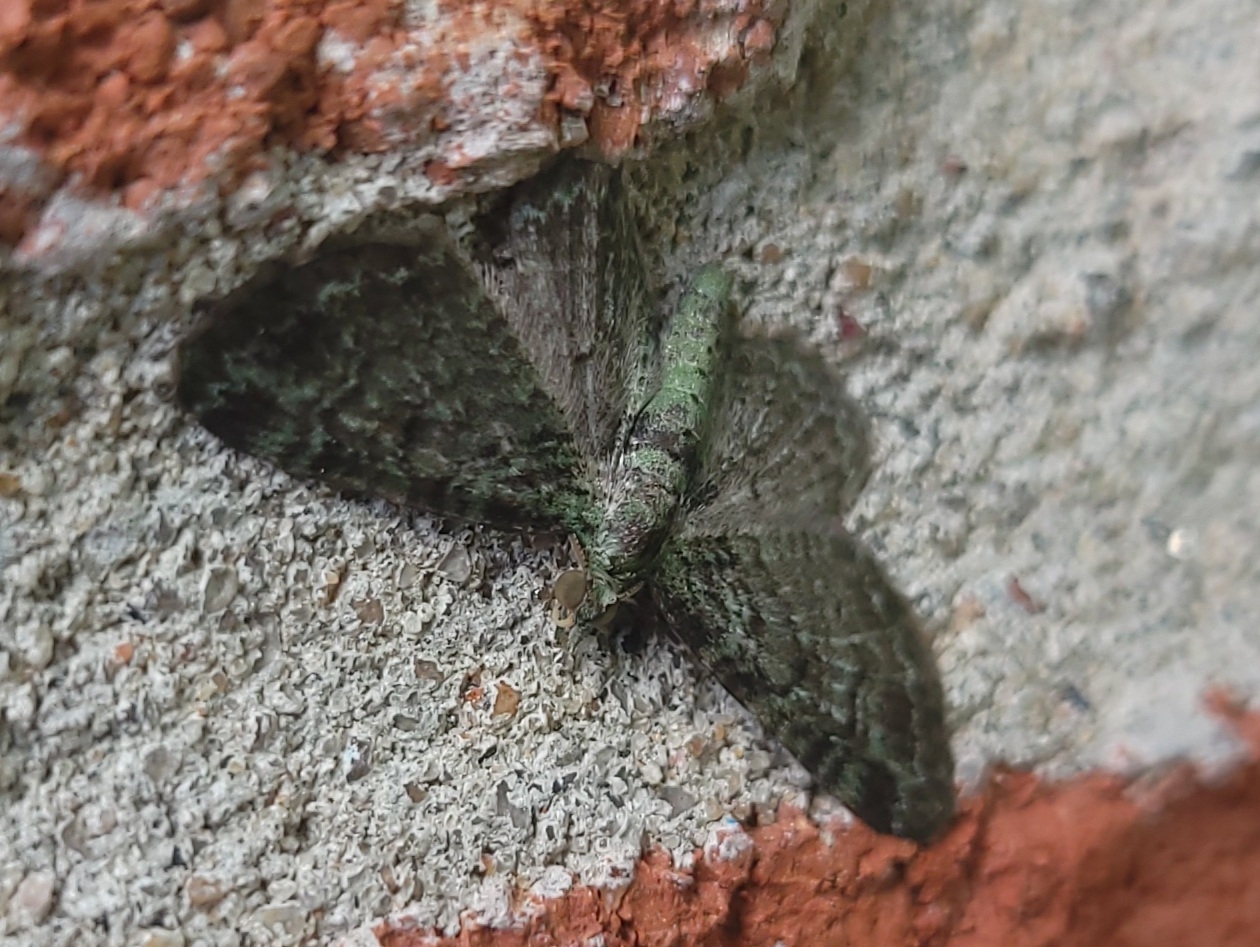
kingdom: Animalia
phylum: Arthropoda
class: Insecta
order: Lepidoptera
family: Geometridae
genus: Pasiphila
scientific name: Pasiphila rectangulata
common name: Green pug
